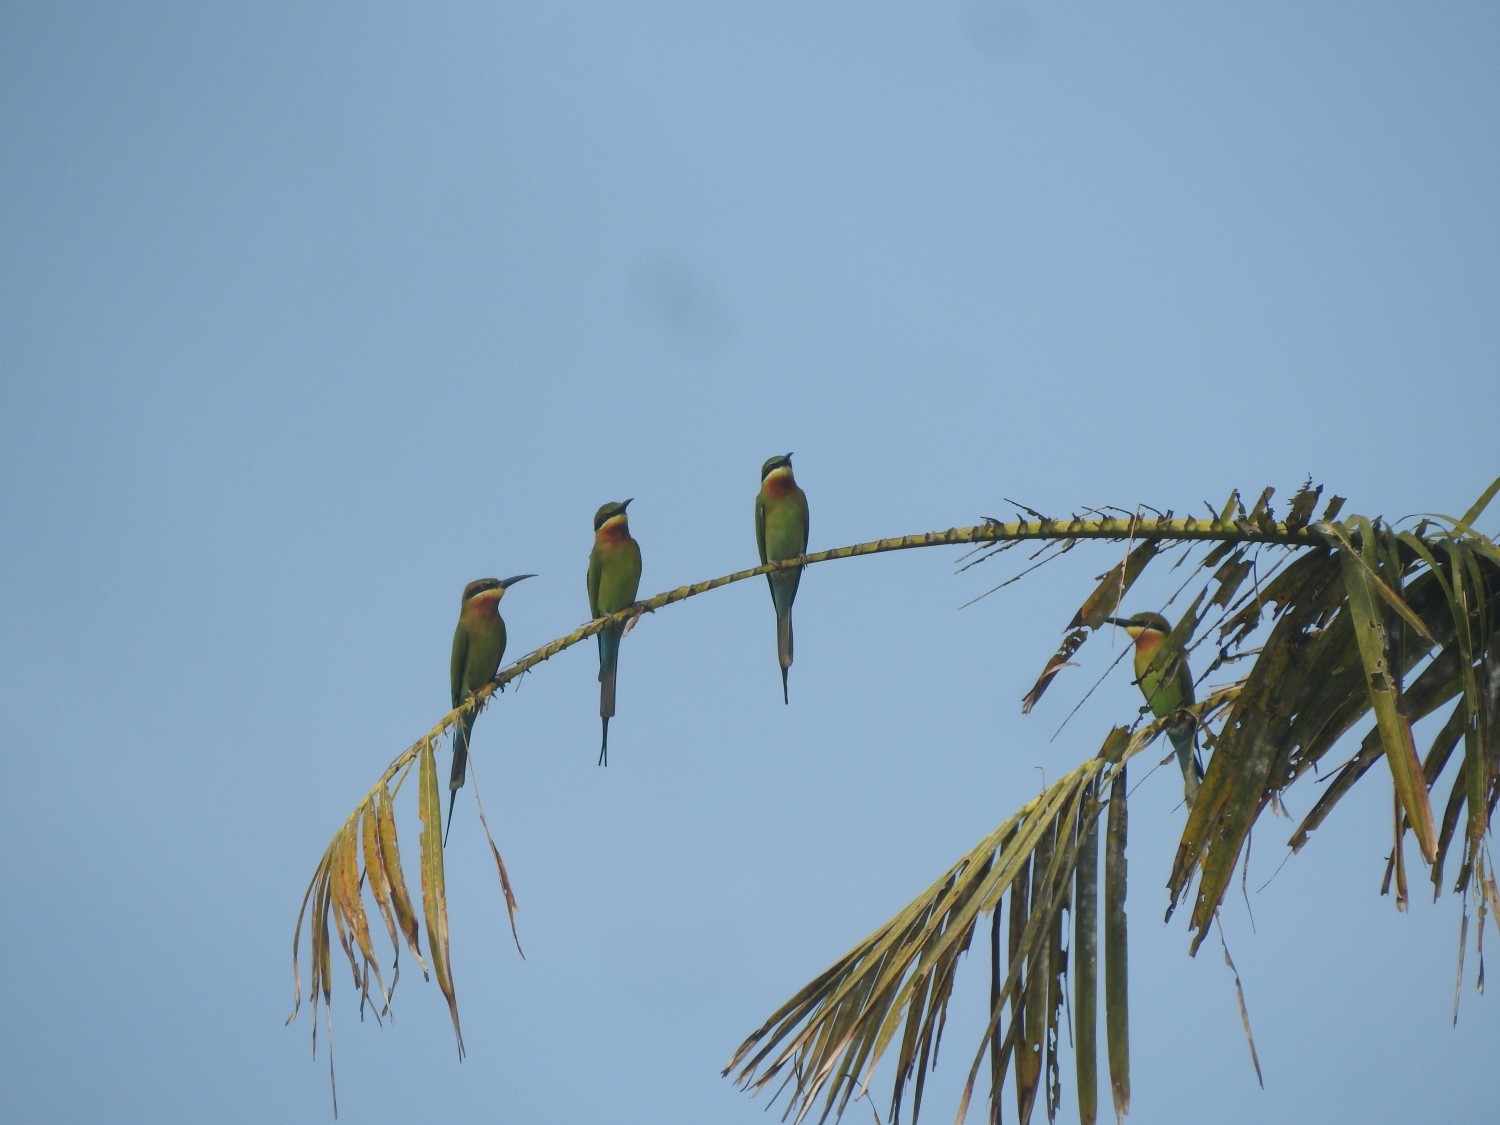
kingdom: Animalia
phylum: Chordata
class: Aves
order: Coraciiformes
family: Meropidae
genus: Merops
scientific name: Merops philippinus
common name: Blue-tailed bee-eater
